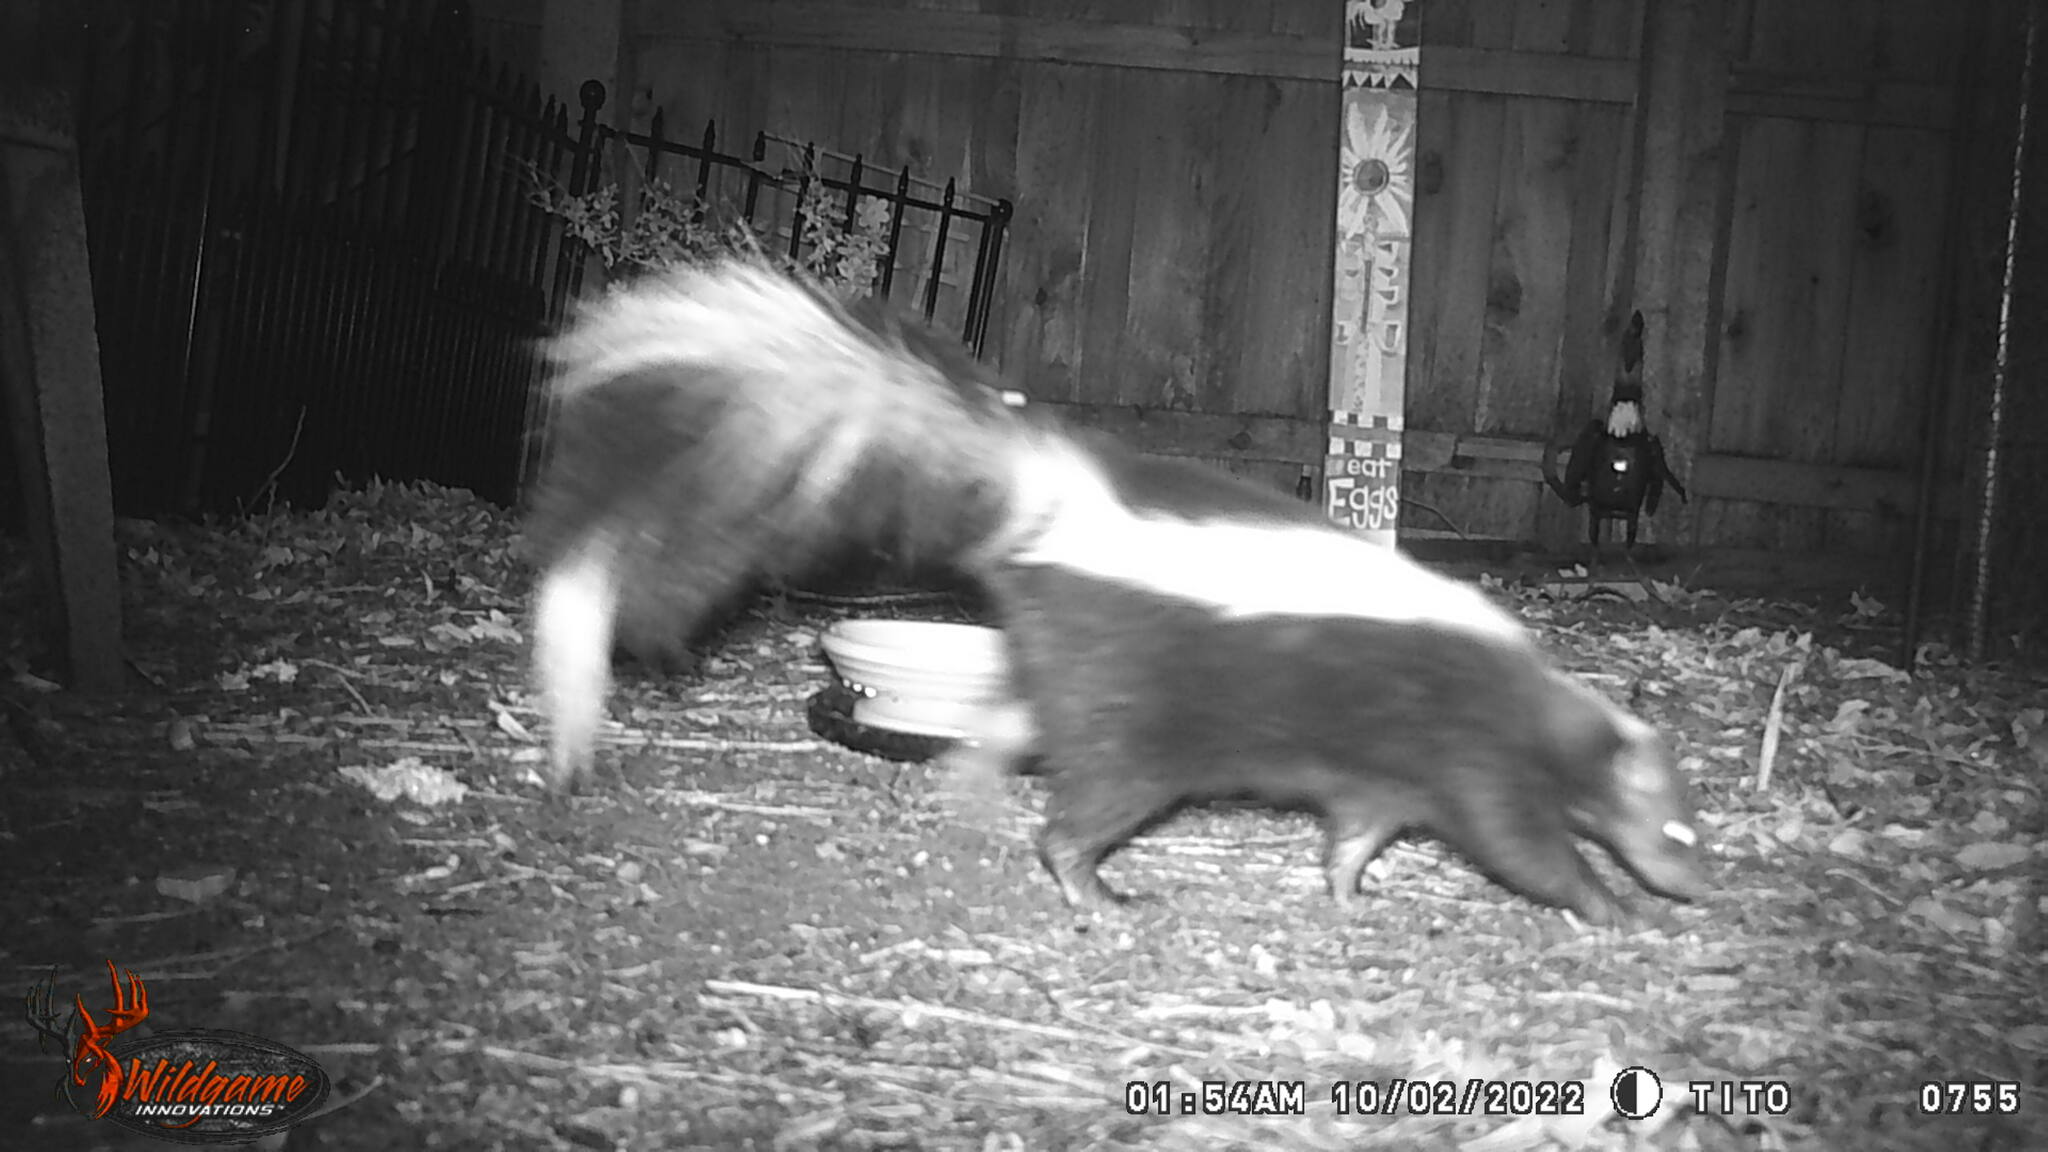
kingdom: Animalia
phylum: Chordata
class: Mammalia
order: Carnivora
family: Mephitidae
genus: Mephitis
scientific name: Mephitis mephitis
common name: Striped skunk
